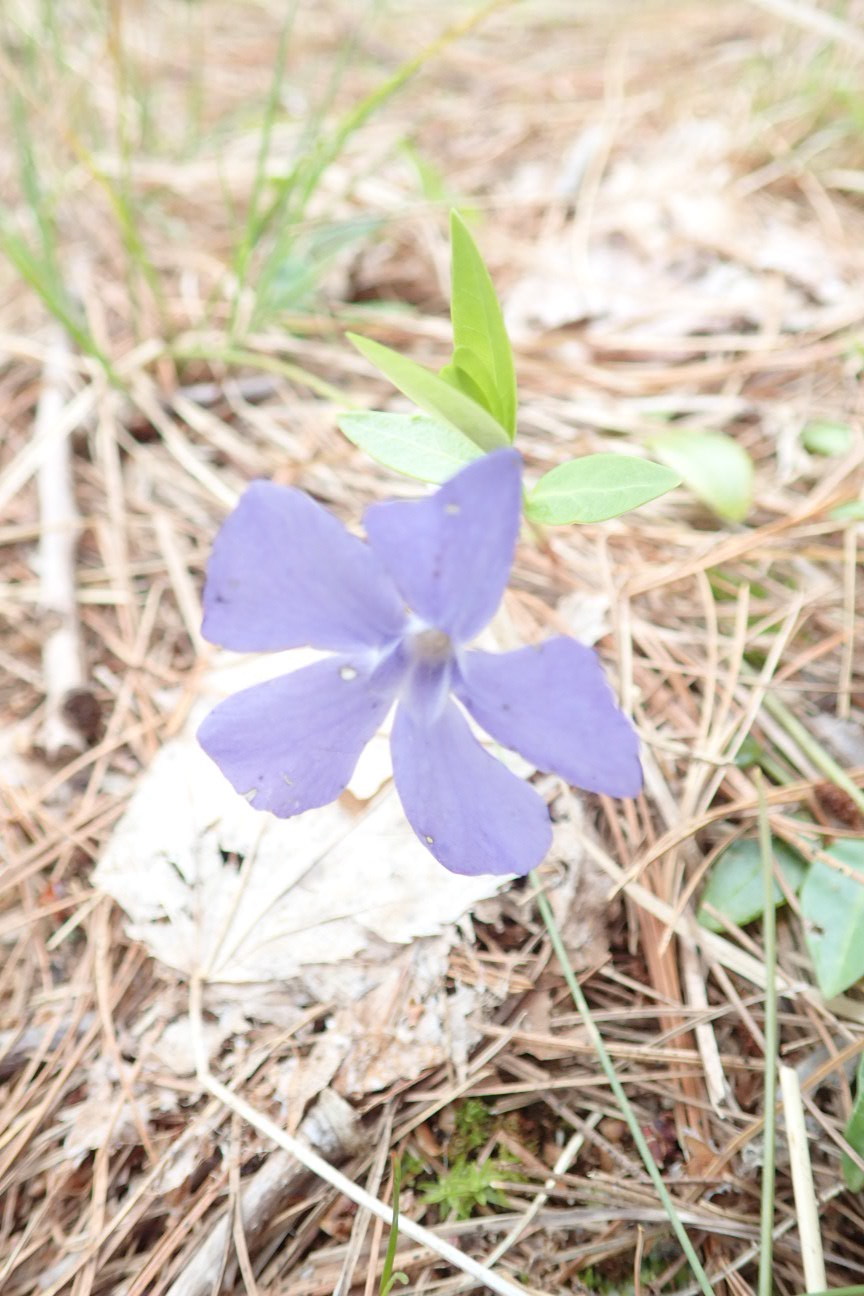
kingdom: Plantae
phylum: Tracheophyta
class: Magnoliopsida
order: Gentianales
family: Apocynaceae
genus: Vinca
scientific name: Vinca minor
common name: Lesser periwinkle
